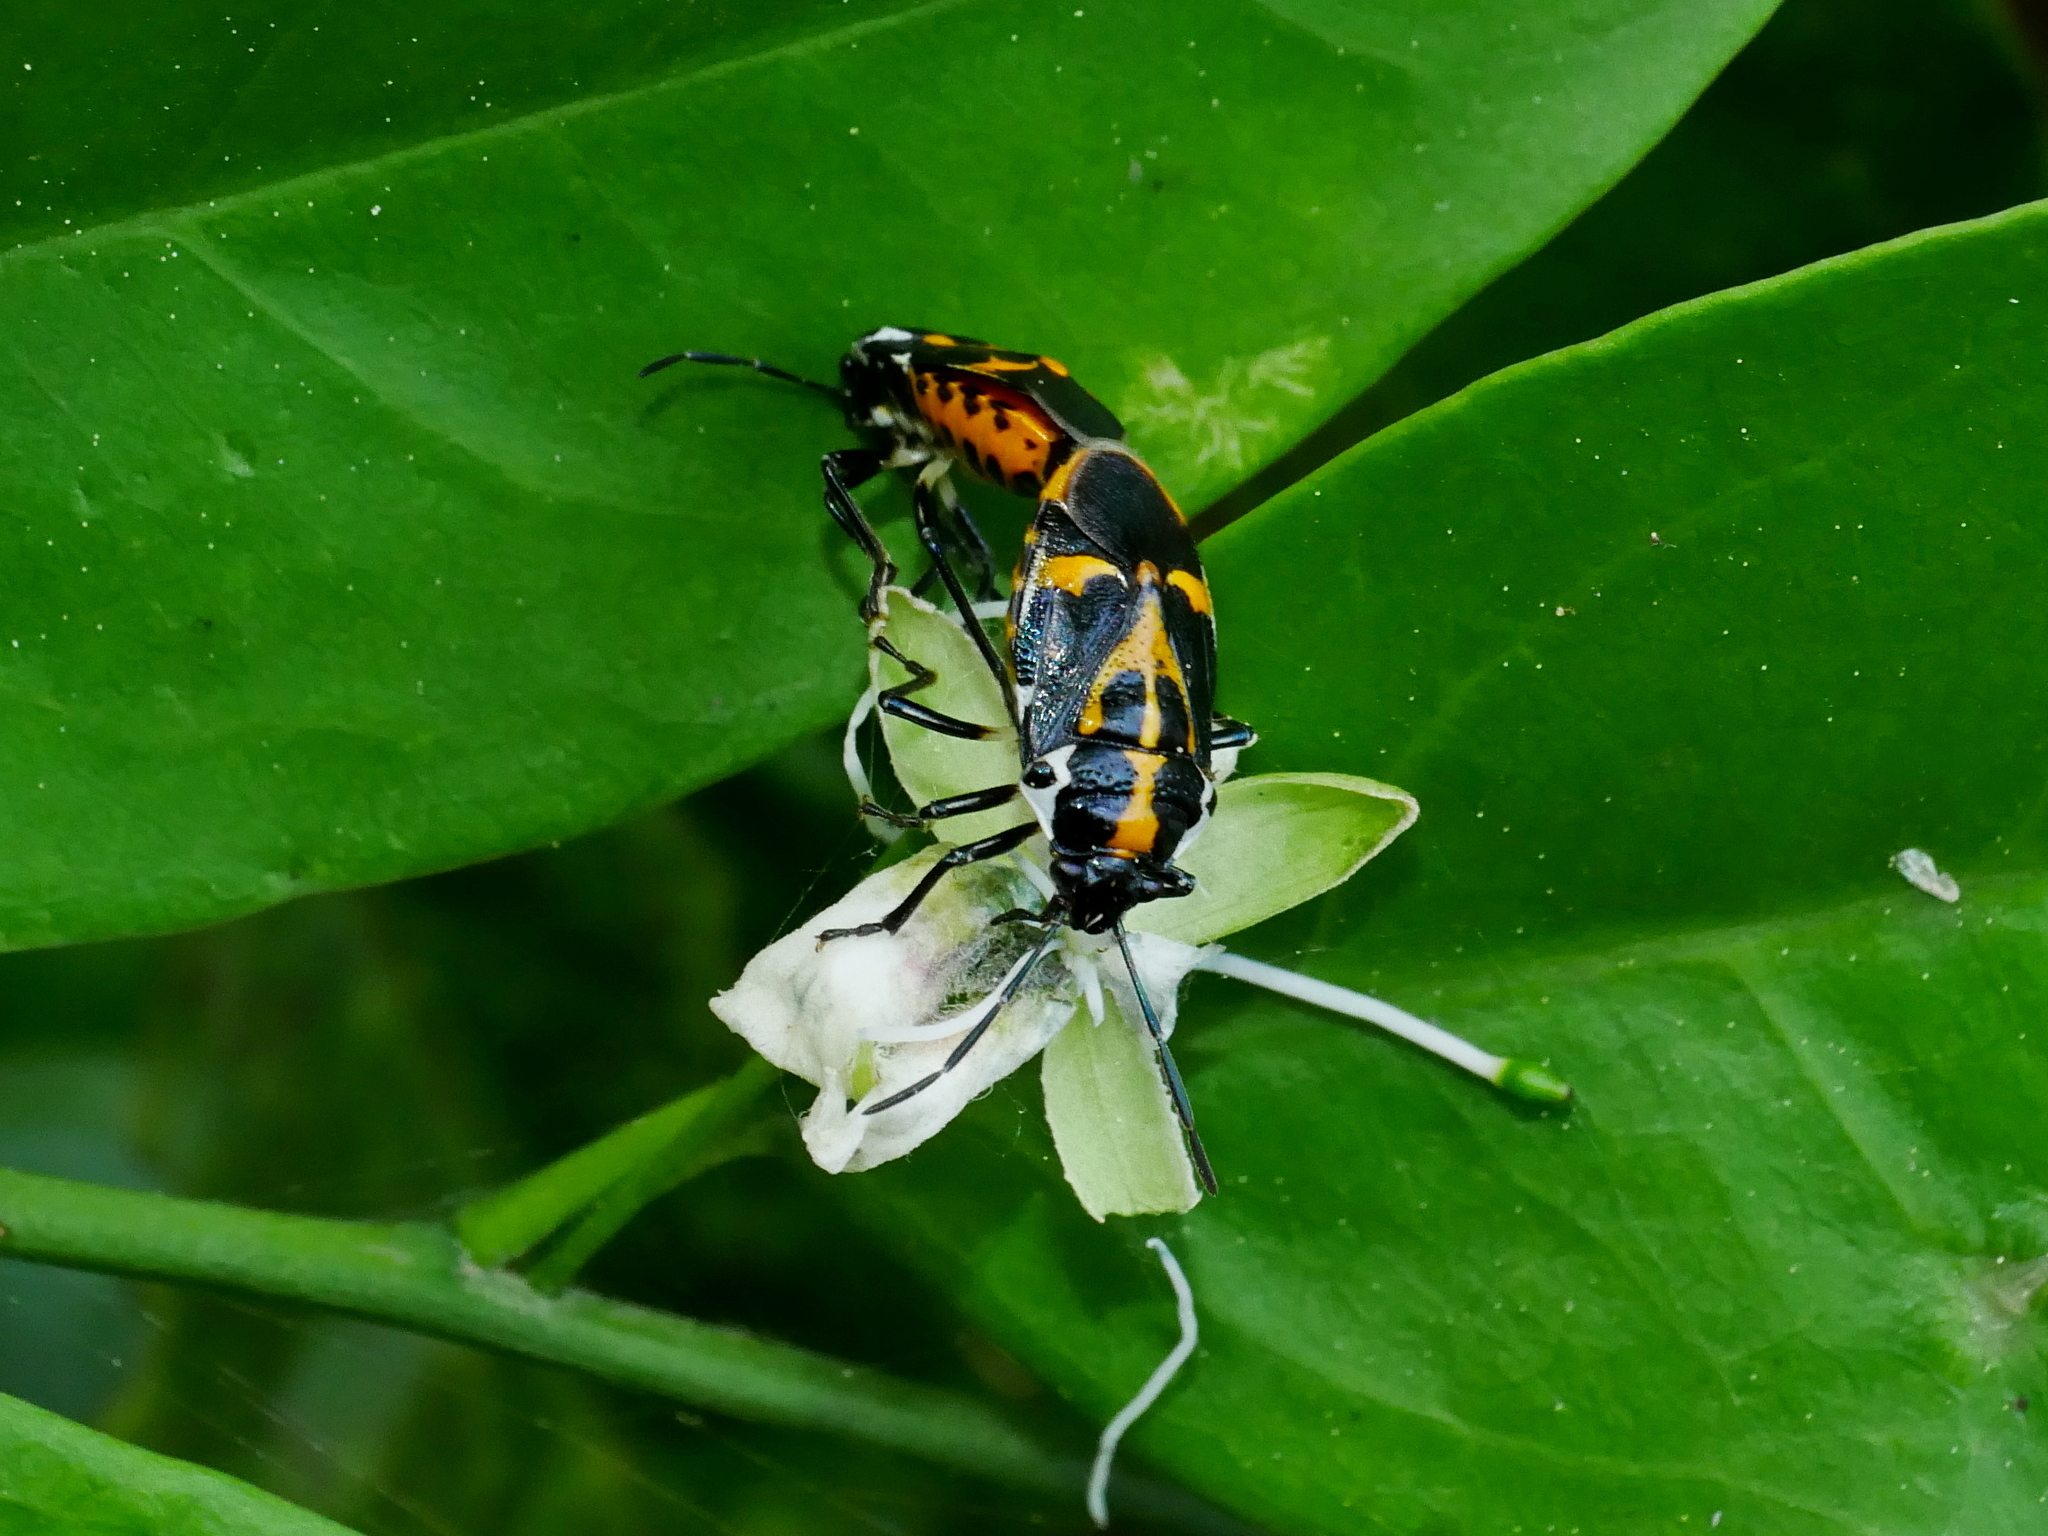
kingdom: Animalia
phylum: Arthropoda
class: Insecta
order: Hemiptera
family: Pentatomidae
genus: Stenozygum
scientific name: Stenozygum speciosum
